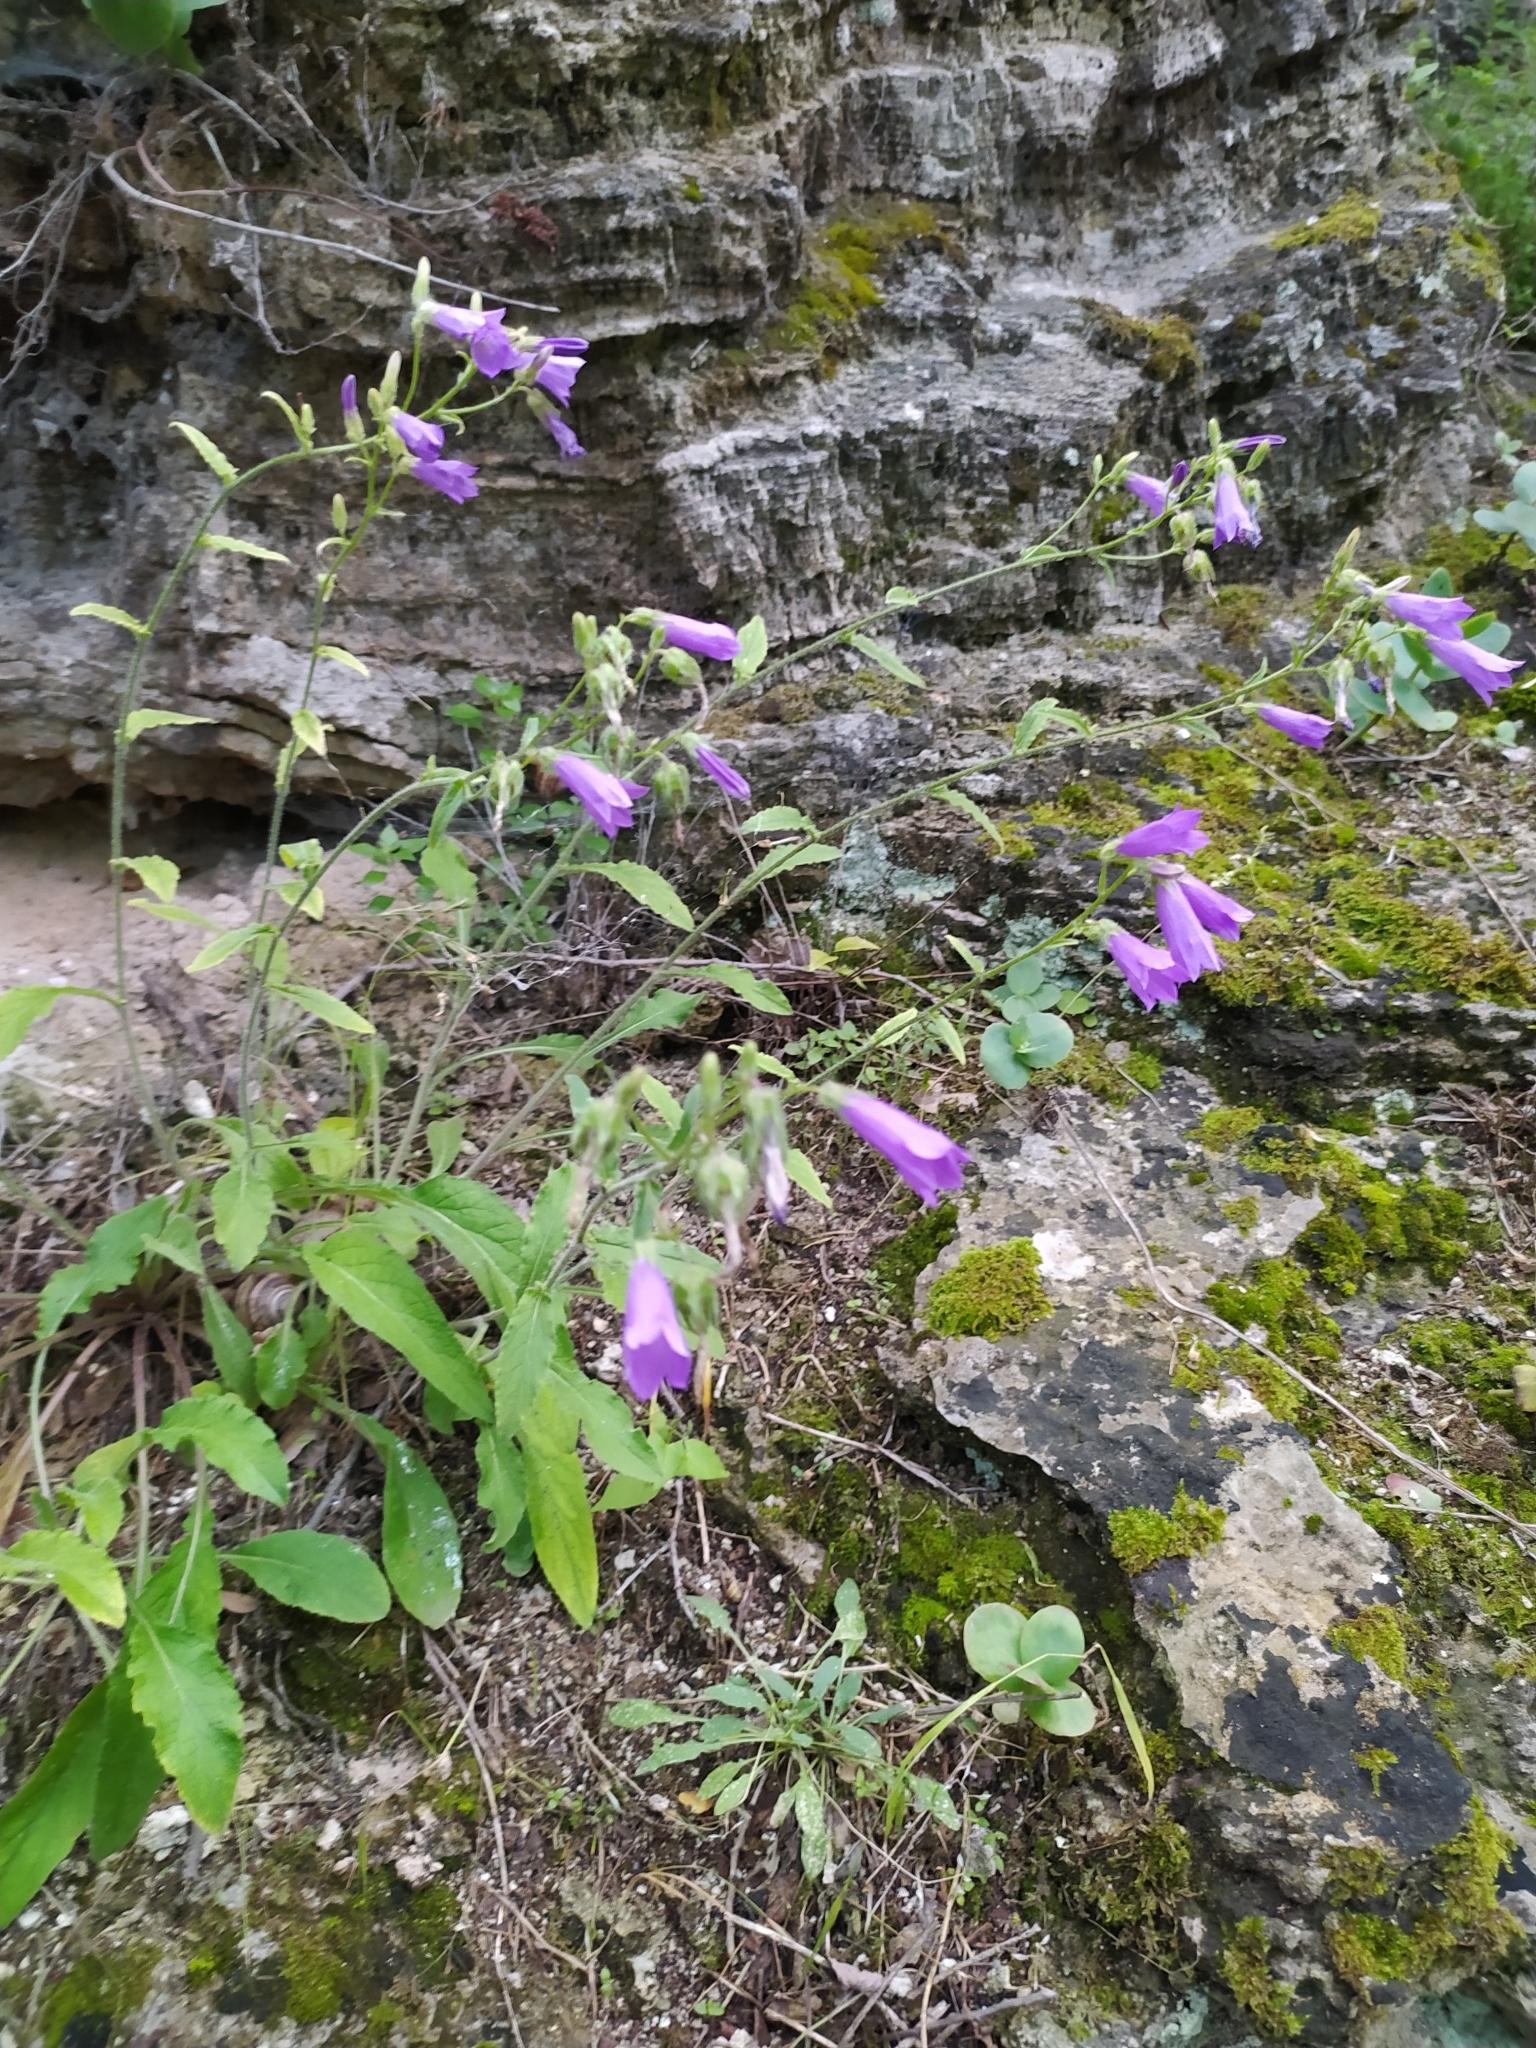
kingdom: Plantae
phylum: Tracheophyta
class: Magnoliopsida
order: Asterales
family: Campanulaceae
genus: Campanula
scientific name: Campanula sibirica
